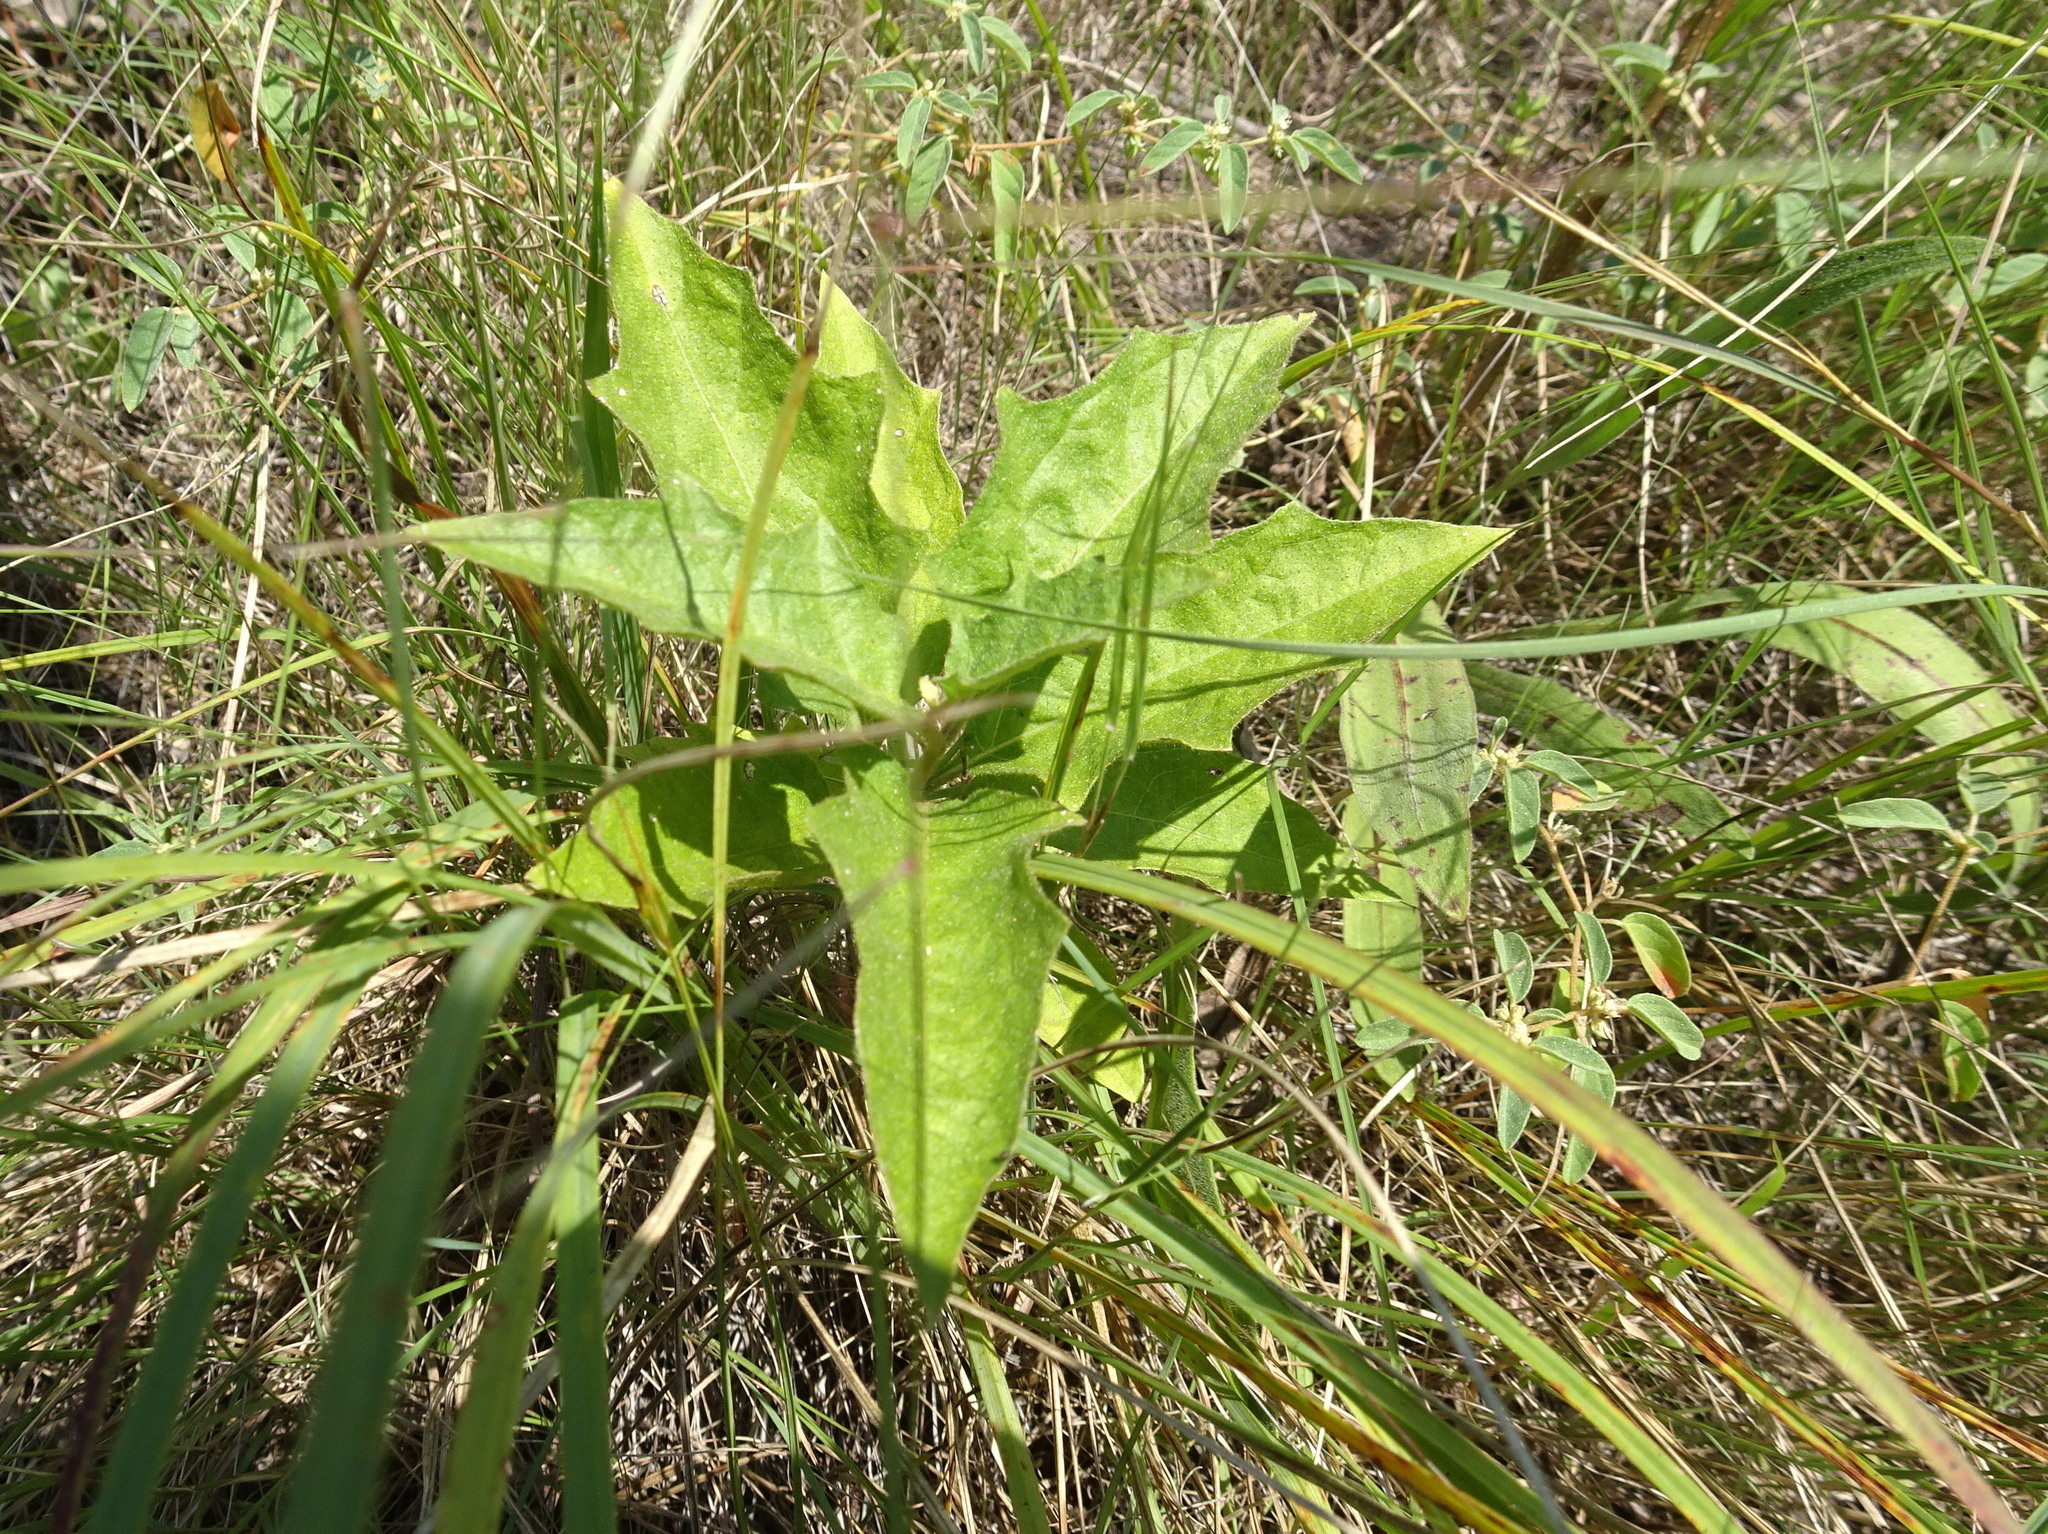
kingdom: Plantae
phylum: Tracheophyta
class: Magnoliopsida
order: Solanales
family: Solanaceae
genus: Solanum
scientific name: Solanum carolinense
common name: Horse-nettle
